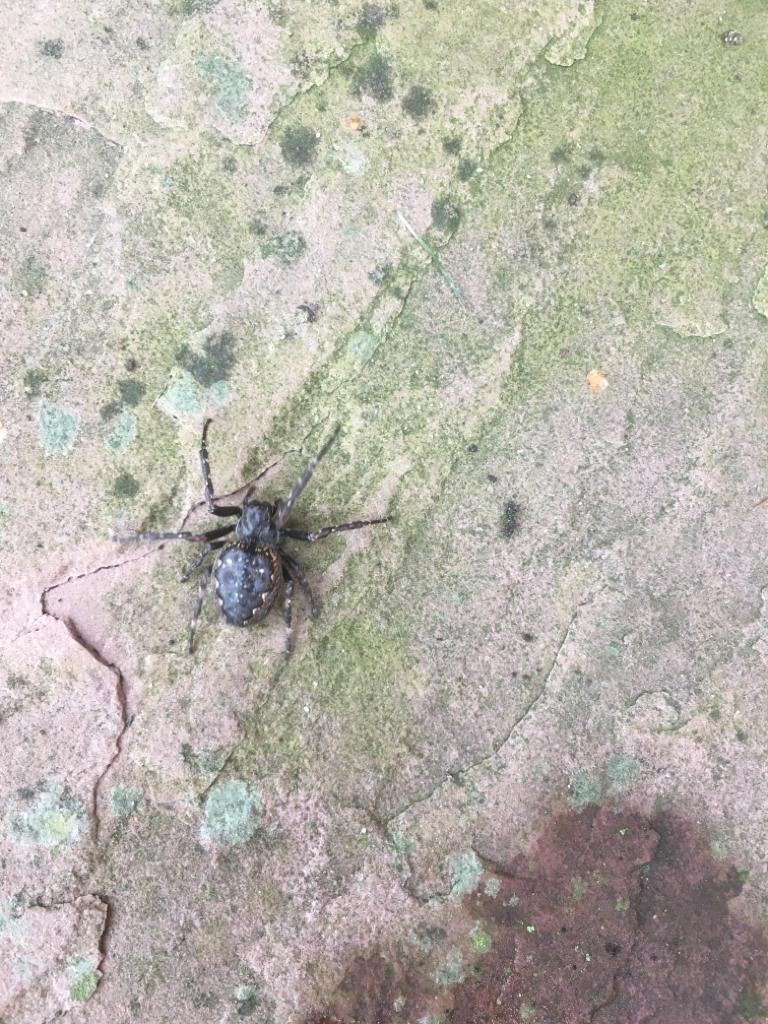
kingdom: Animalia
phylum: Arthropoda
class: Arachnida
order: Araneae
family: Araneidae
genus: Nuctenea
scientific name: Nuctenea umbratica
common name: Toad spider
